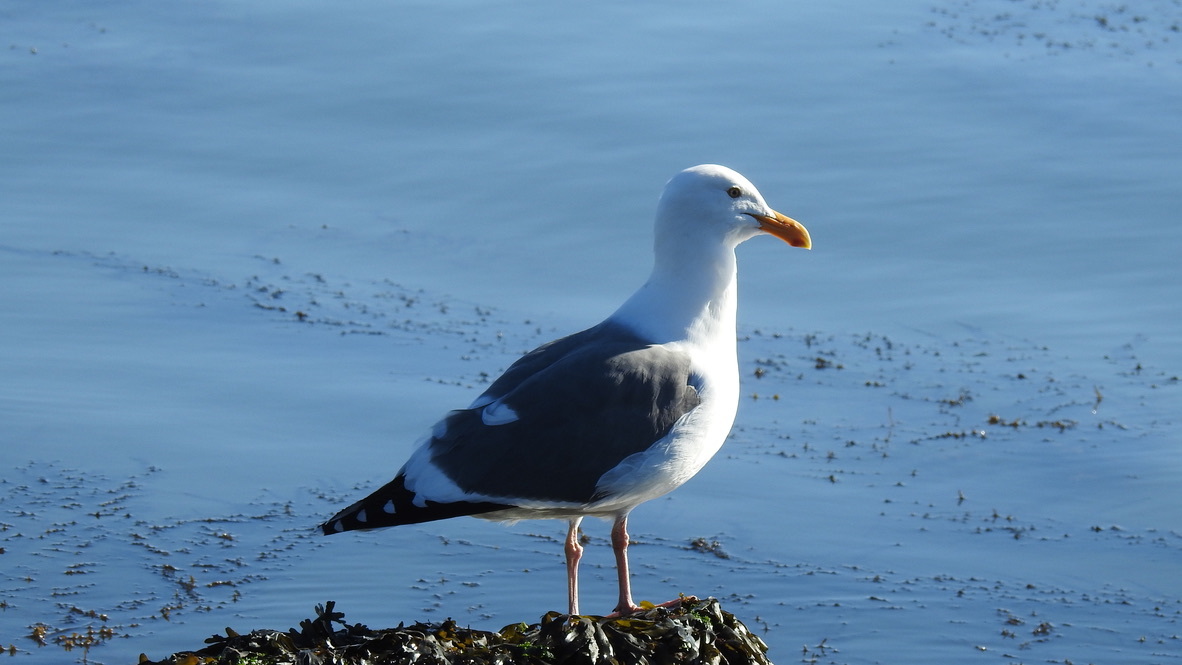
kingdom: Animalia
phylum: Chordata
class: Aves
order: Charadriiformes
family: Laridae
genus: Larus
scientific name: Larus occidentalis
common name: Western gull
